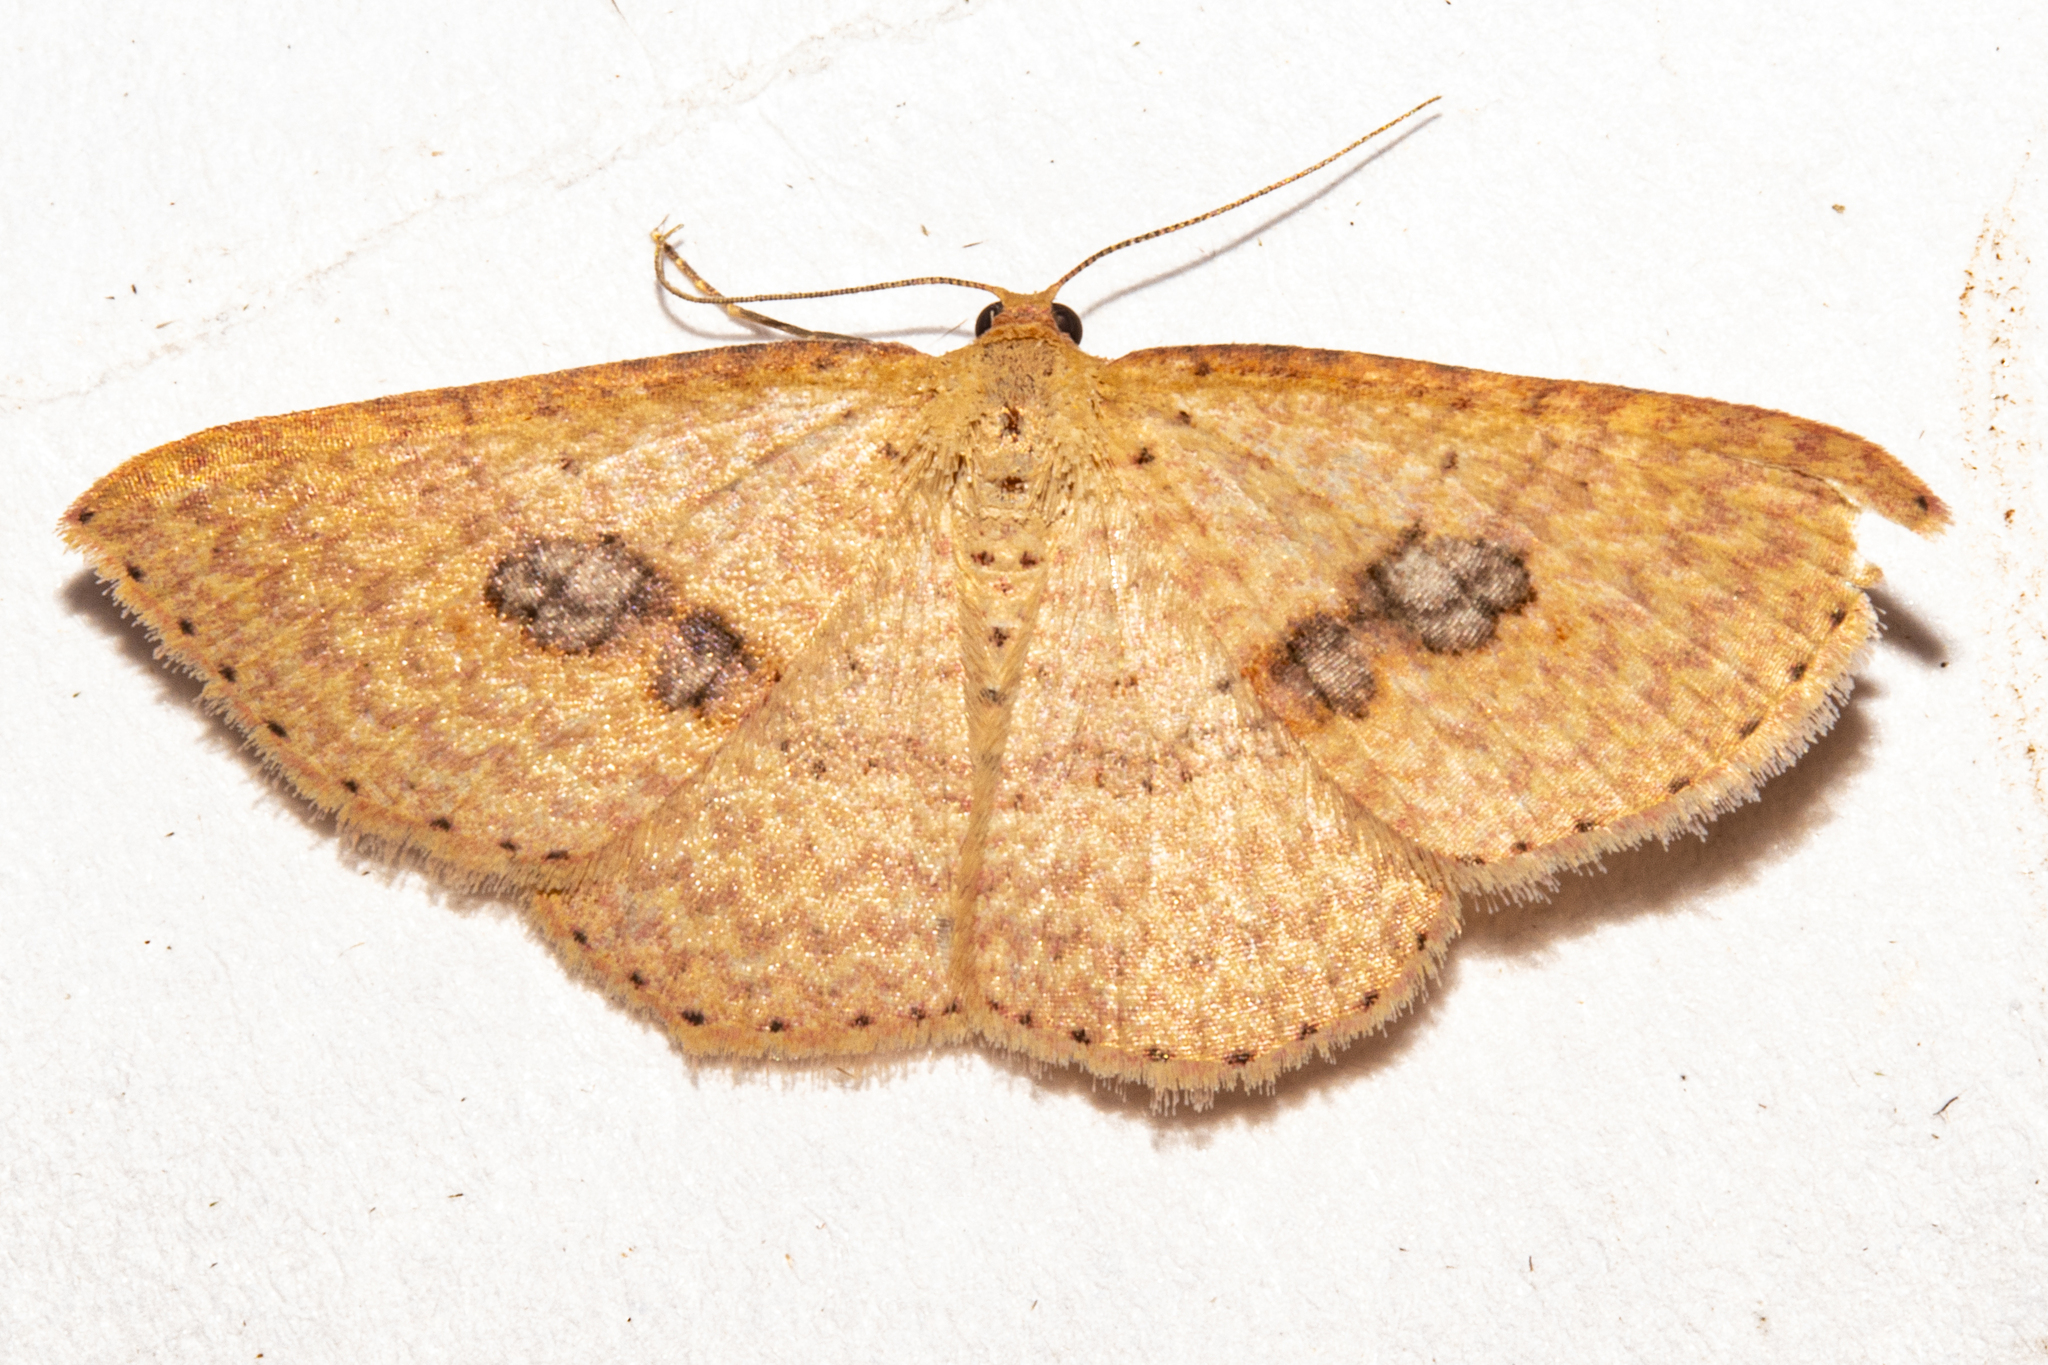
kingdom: Animalia
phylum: Arthropoda
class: Insecta
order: Lepidoptera
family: Geometridae
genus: Epicyme
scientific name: Epicyme rubropunctaria
